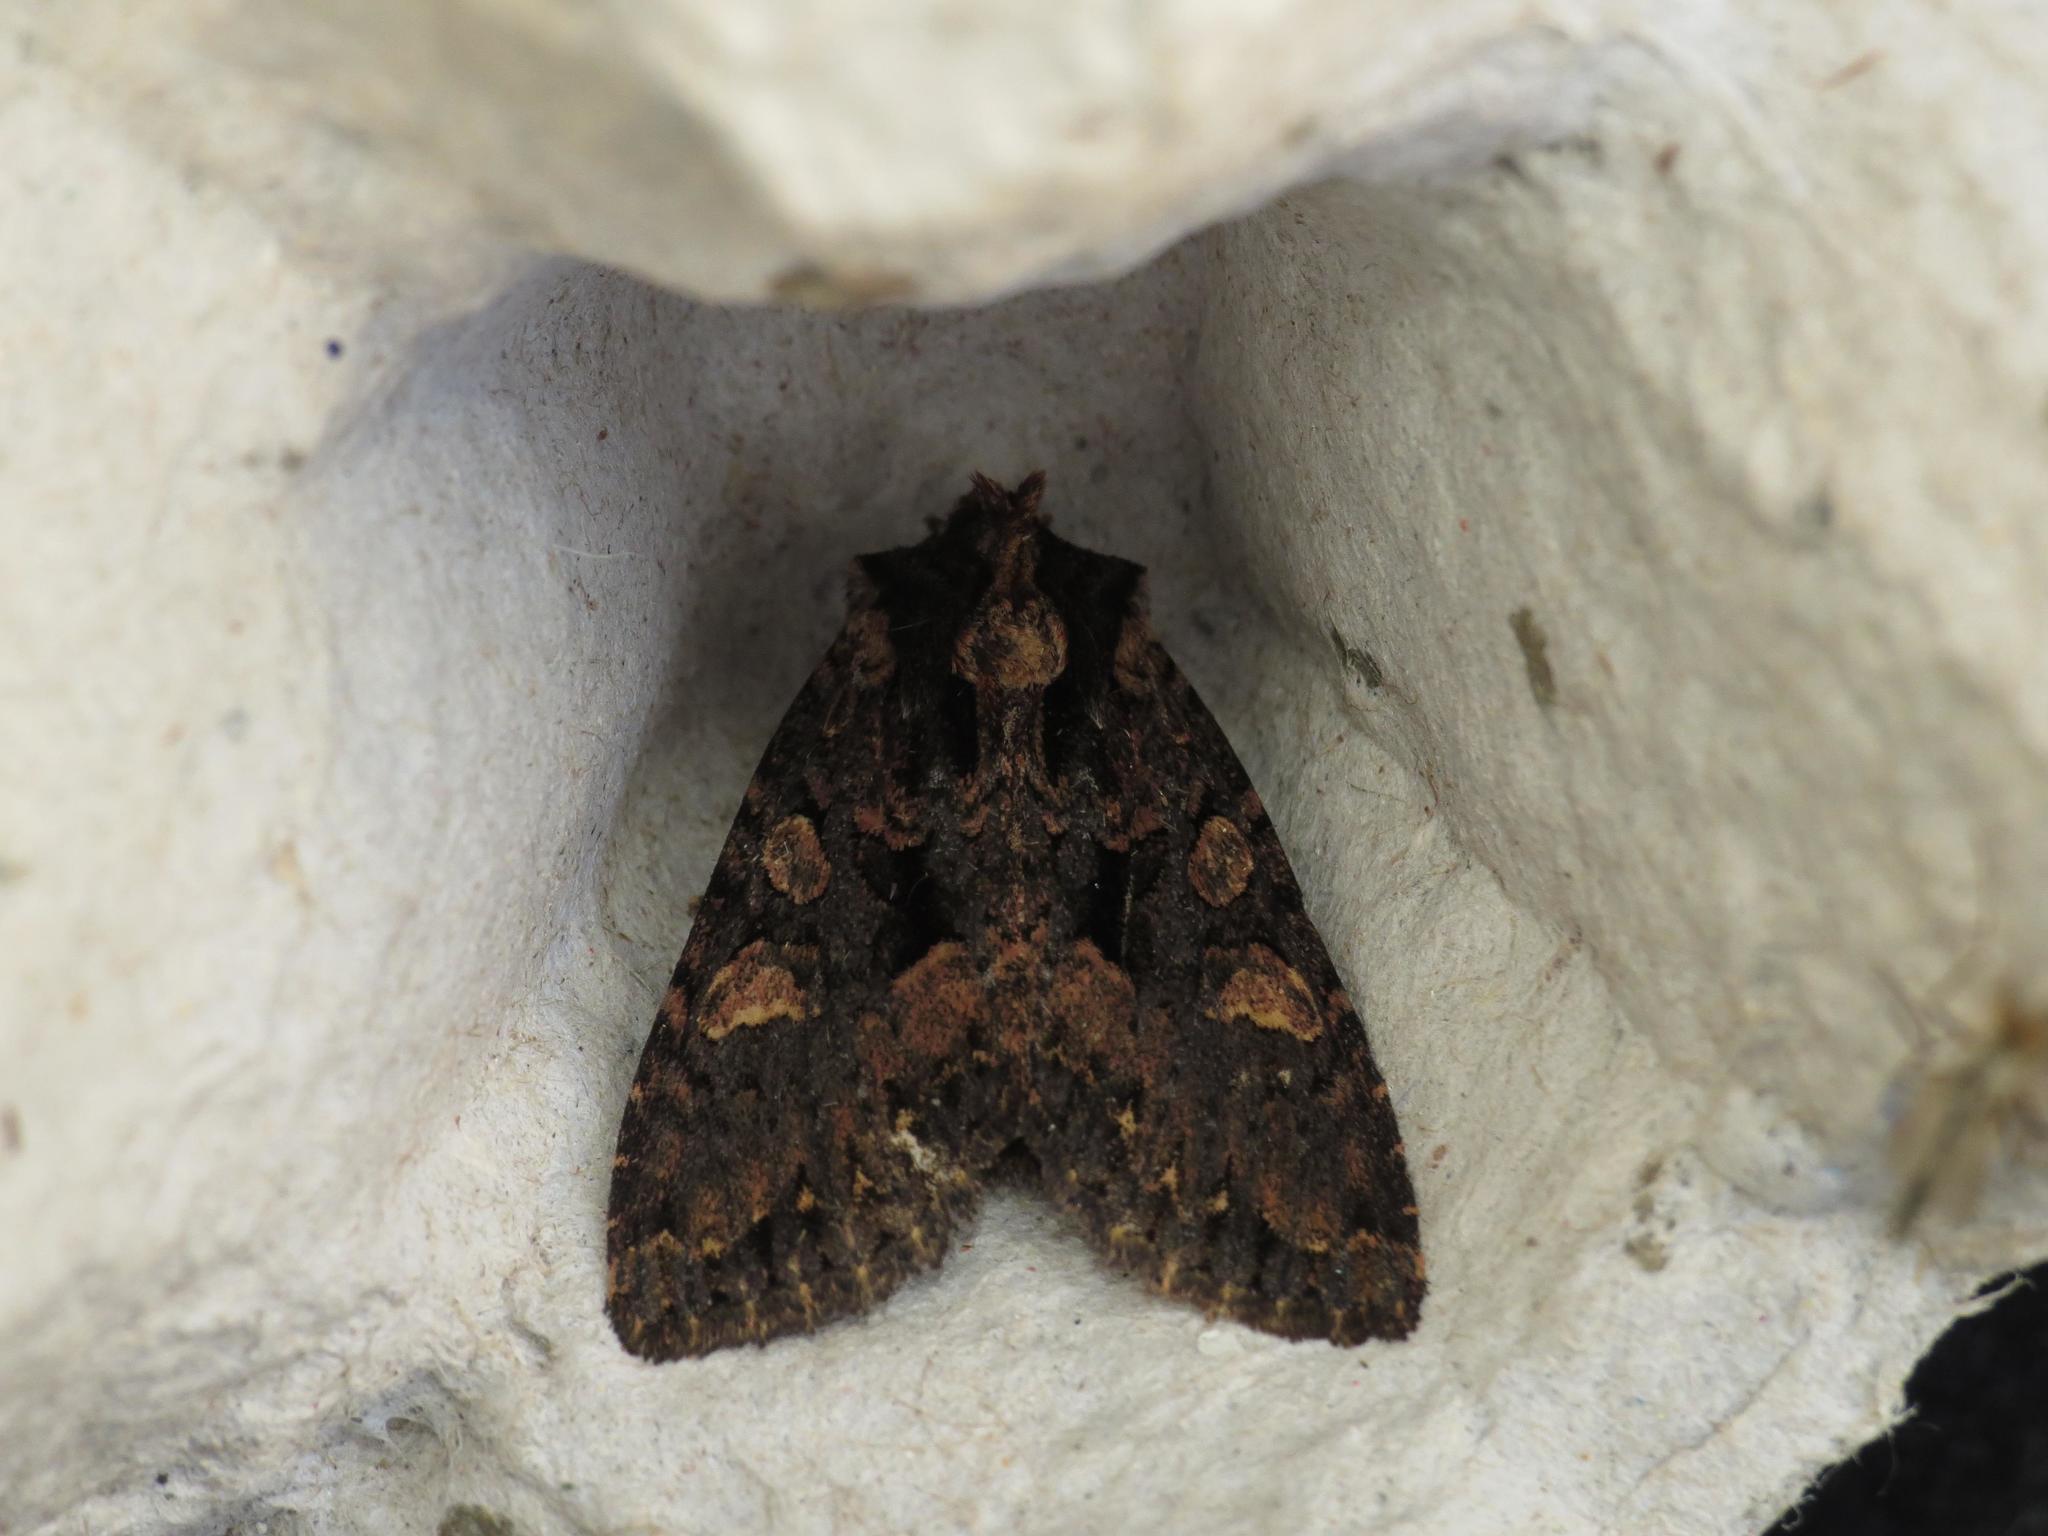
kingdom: Animalia
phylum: Arthropoda
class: Insecta
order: Lepidoptera
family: Noctuidae
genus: Mniotype
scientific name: Mniotype satura
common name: Beautiful arches
